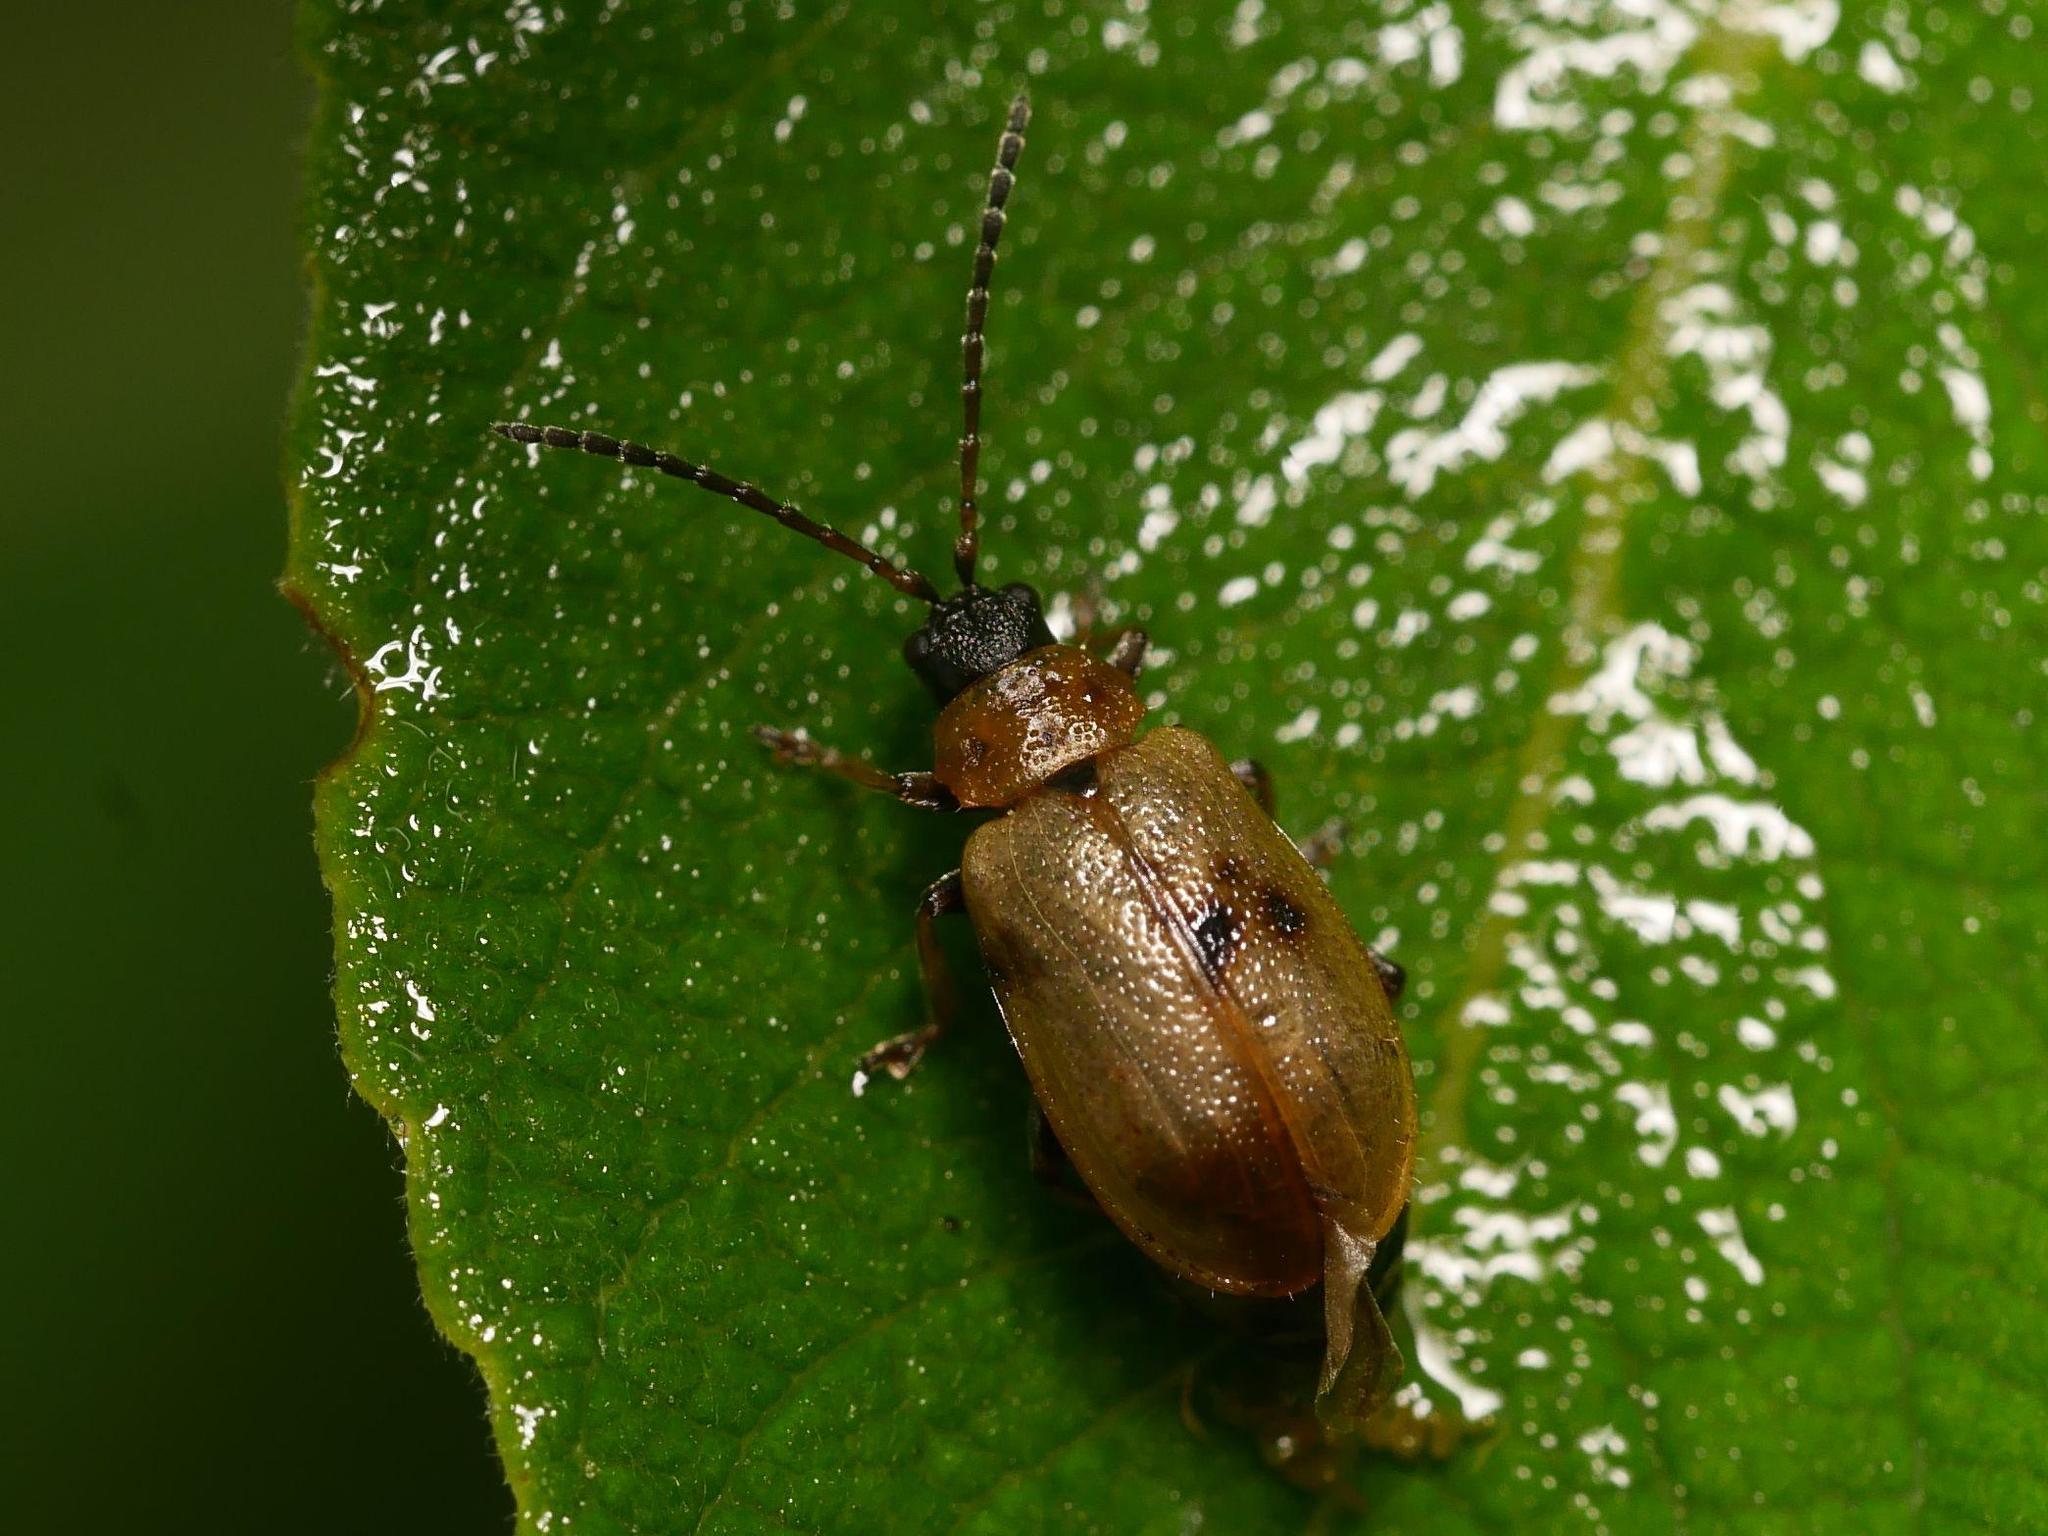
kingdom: Animalia
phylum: Arthropoda
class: Insecta
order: Coleoptera
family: Chrysomelidae
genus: Lochmaea
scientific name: Lochmaea caprea
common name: Willow leaf beetle
